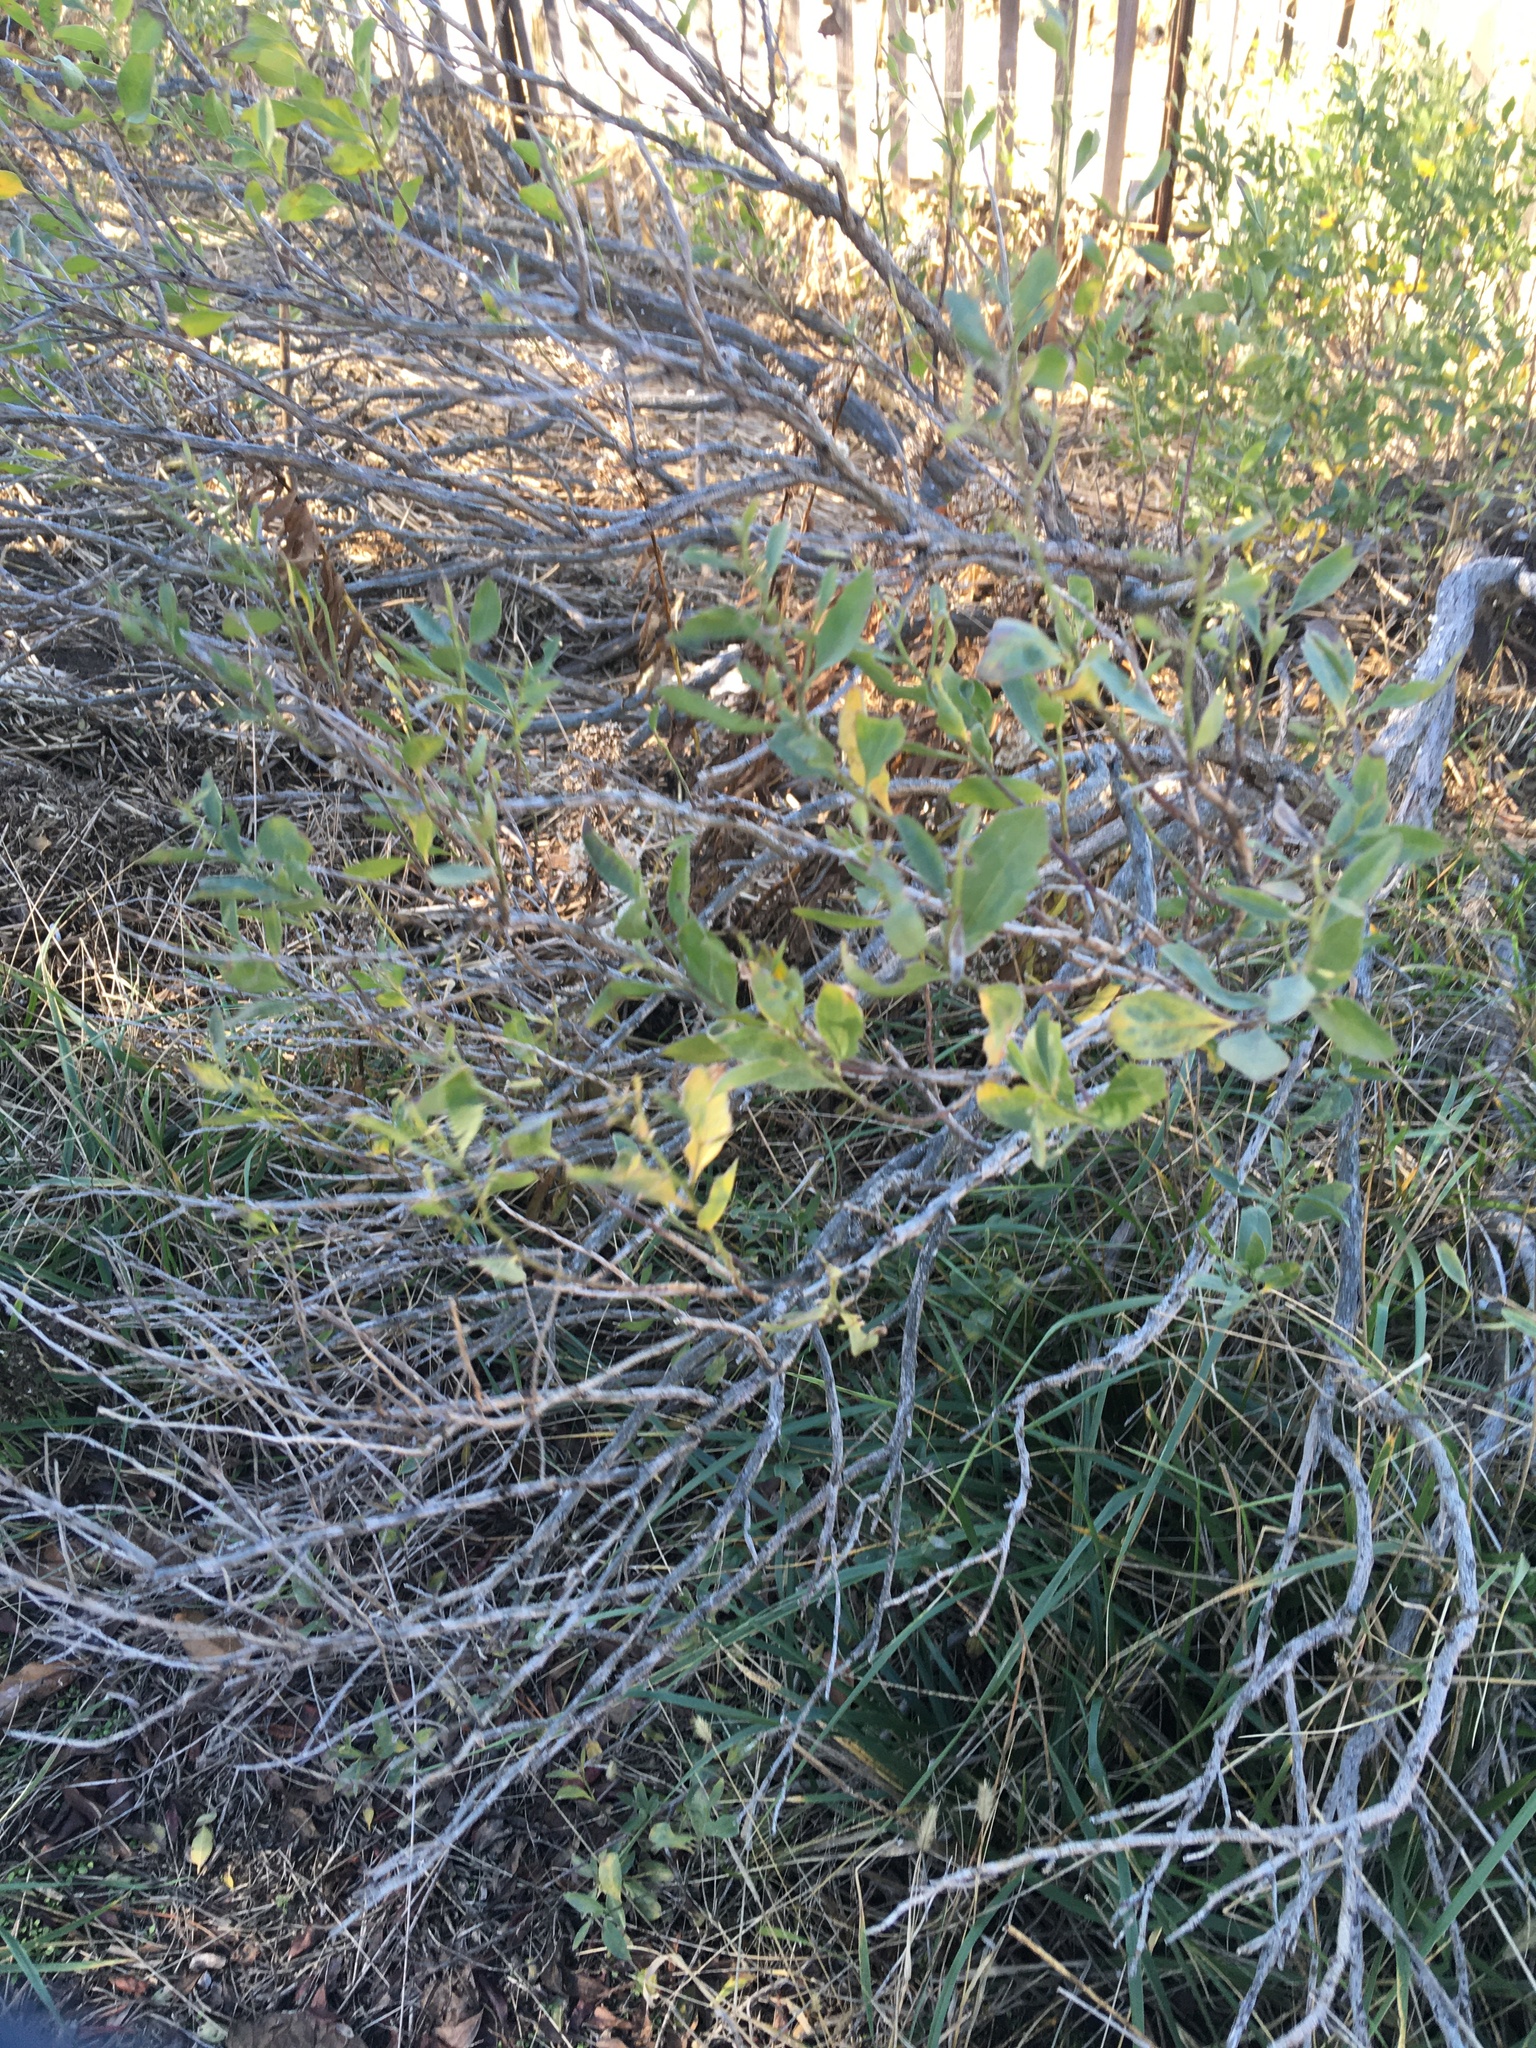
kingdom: Plantae
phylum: Tracheophyta
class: Magnoliopsida
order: Asterales
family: Asteraceae
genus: Baccharis
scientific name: Baccharis halimifolia
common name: Eastern baccharis
